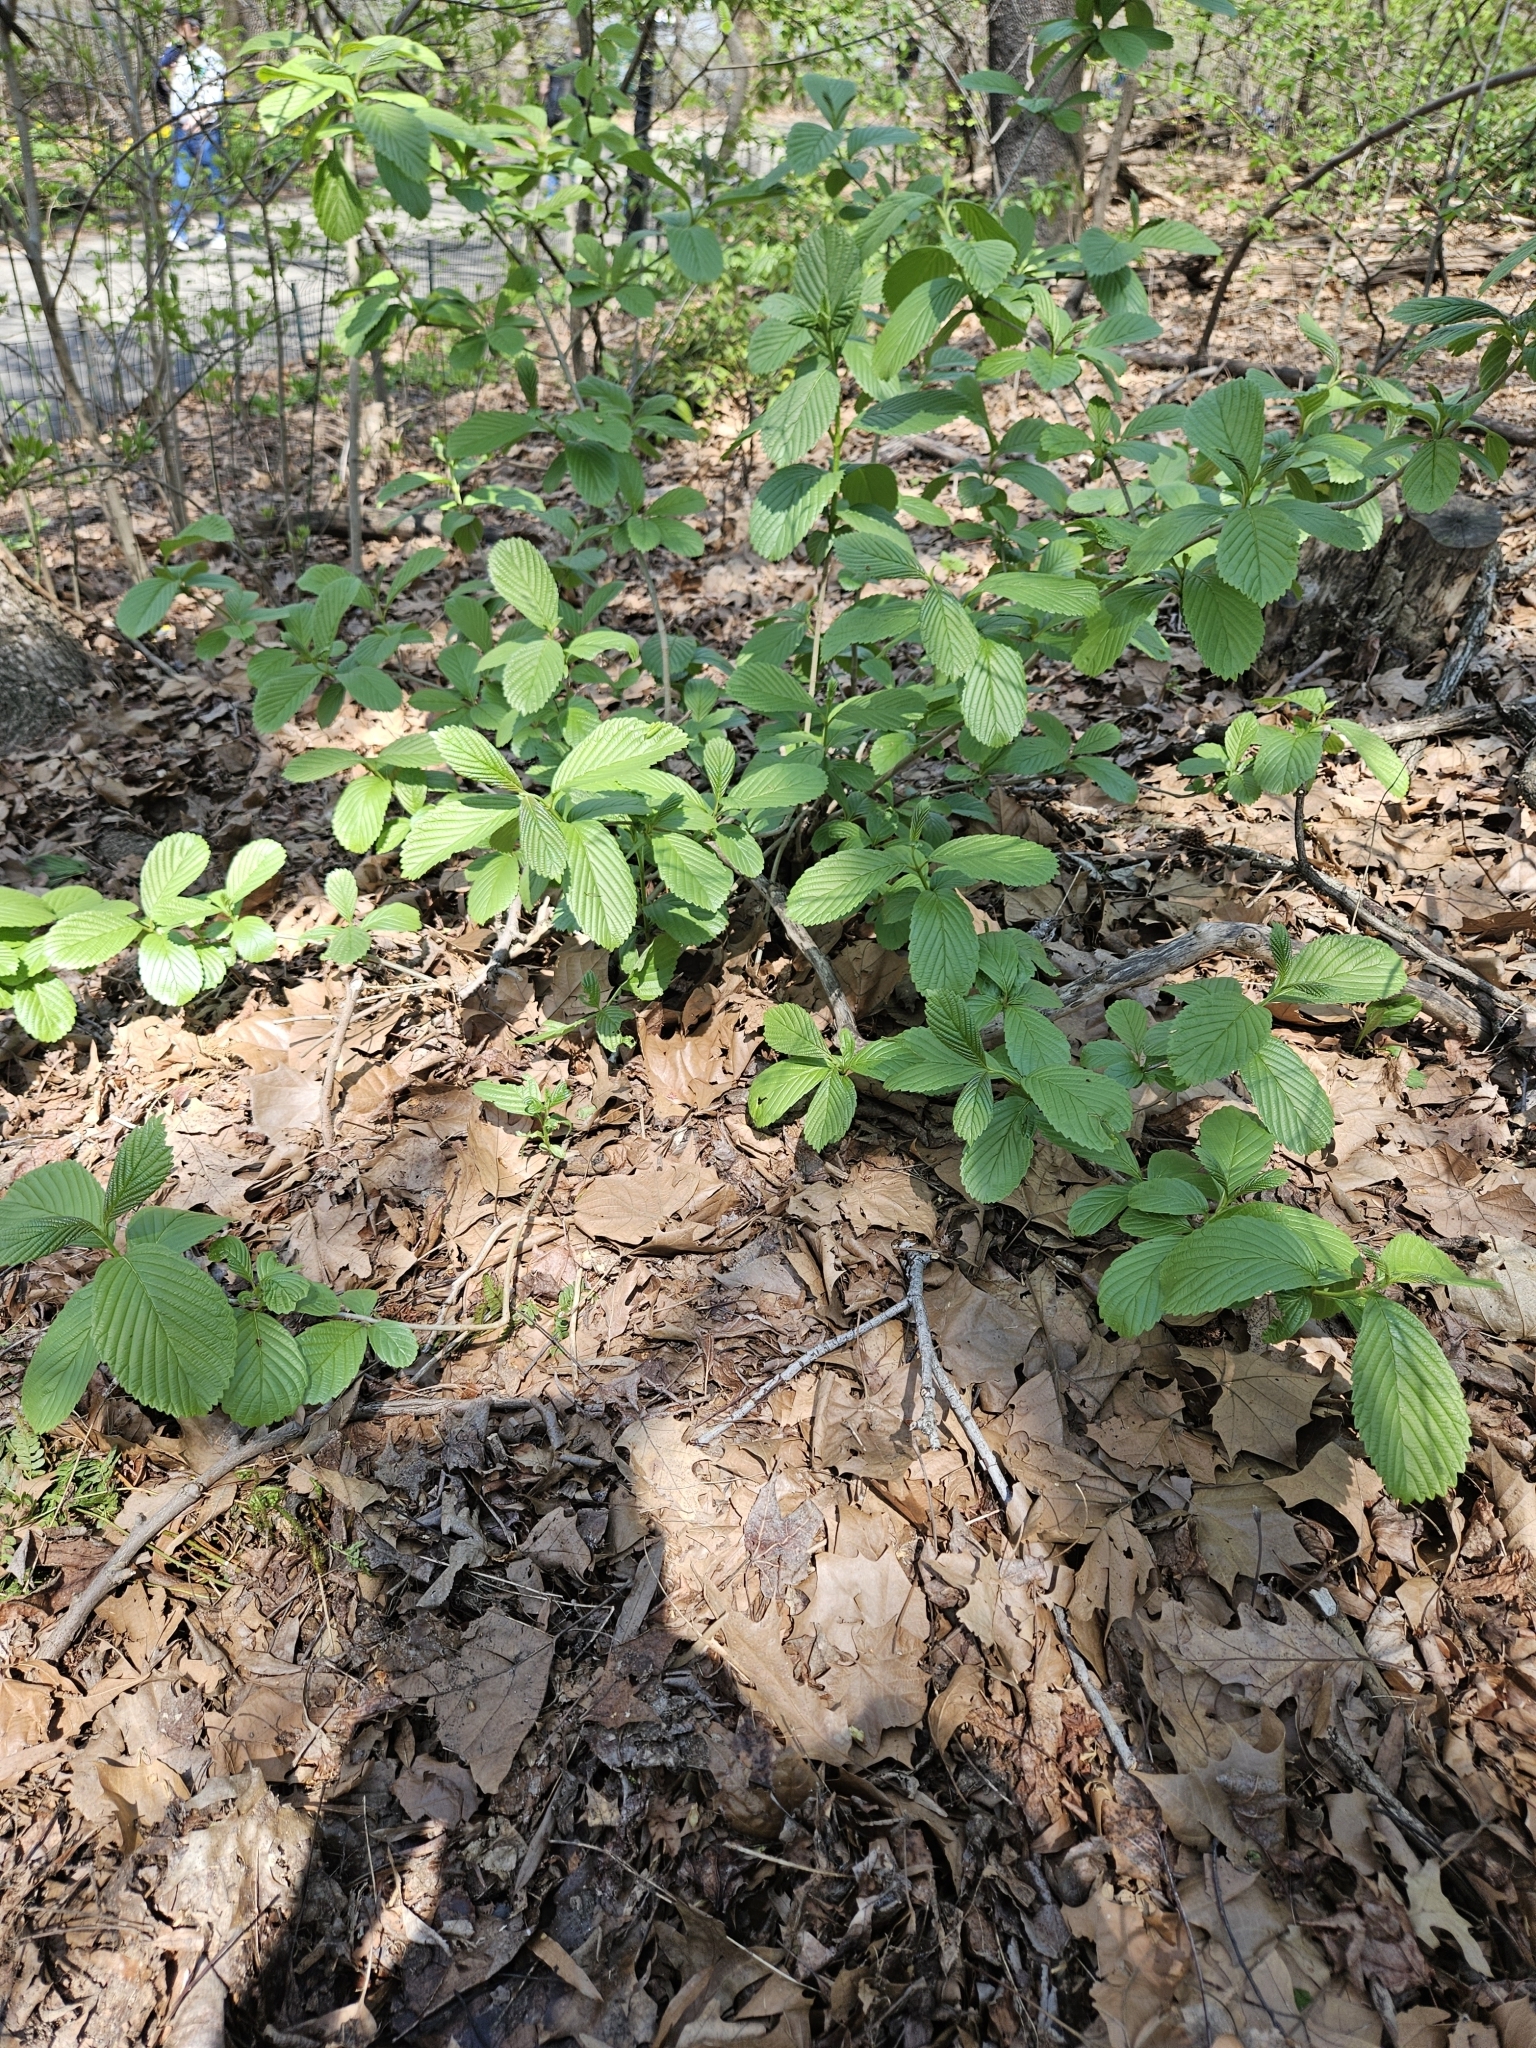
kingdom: Plantae
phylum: Tracheophyta
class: Magnoliopsida
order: Dipsacales
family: Viburnaceae
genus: Viburnum
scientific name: Viburnum sieboldii
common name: Siebold's arrowwood
